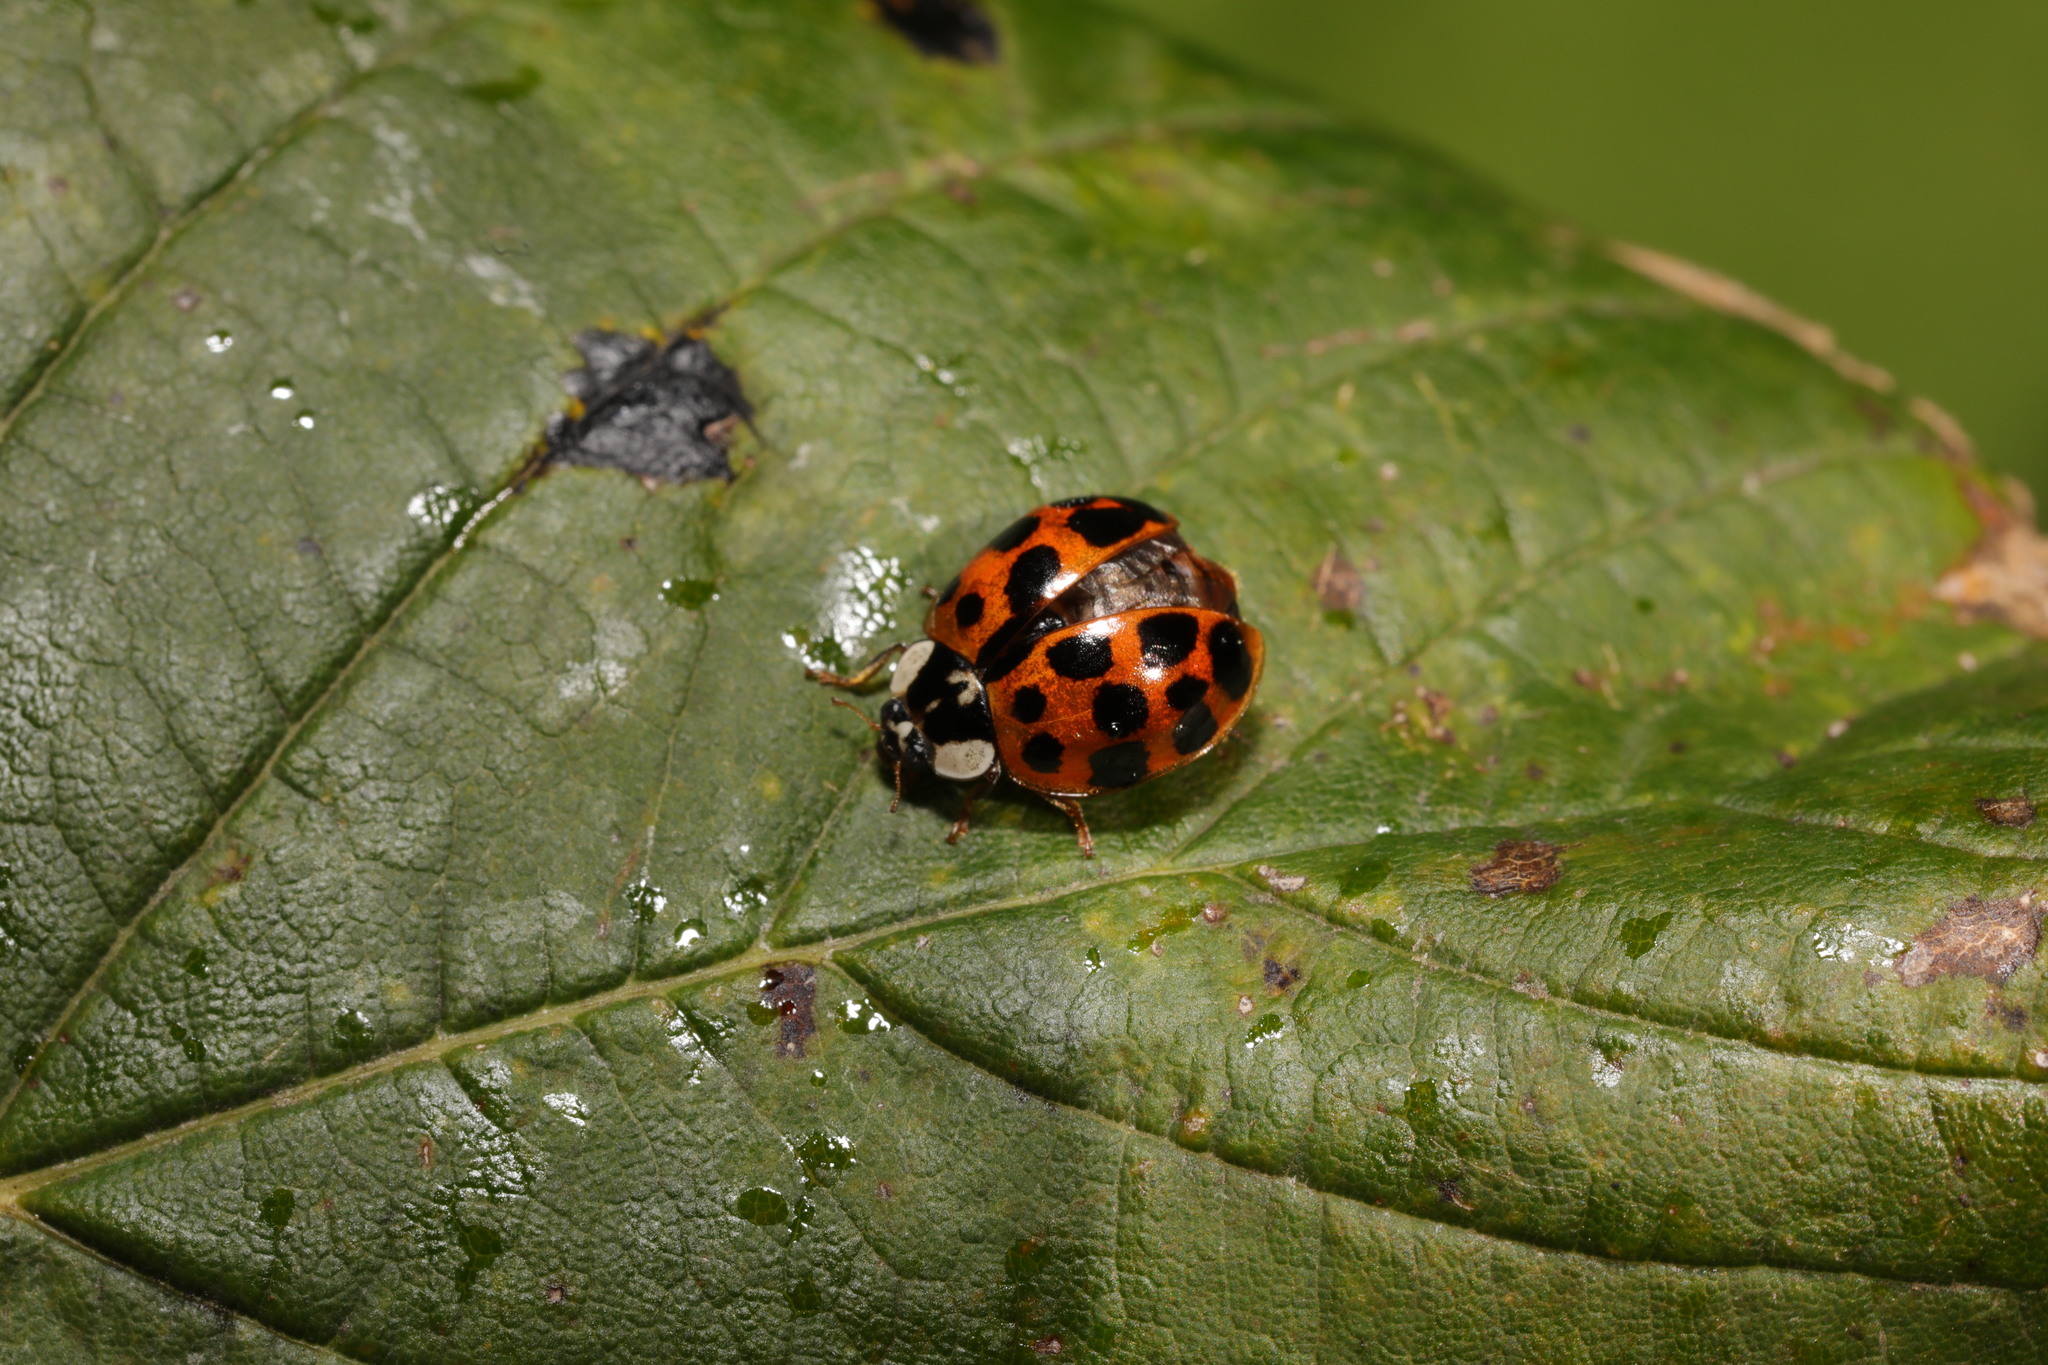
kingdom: Animalia
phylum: Arthropoda
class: Insecta
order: Coleoptera
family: Coccinellidae
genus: Harmonia
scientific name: Harmonia axyridis
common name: Harlequin ladybird
